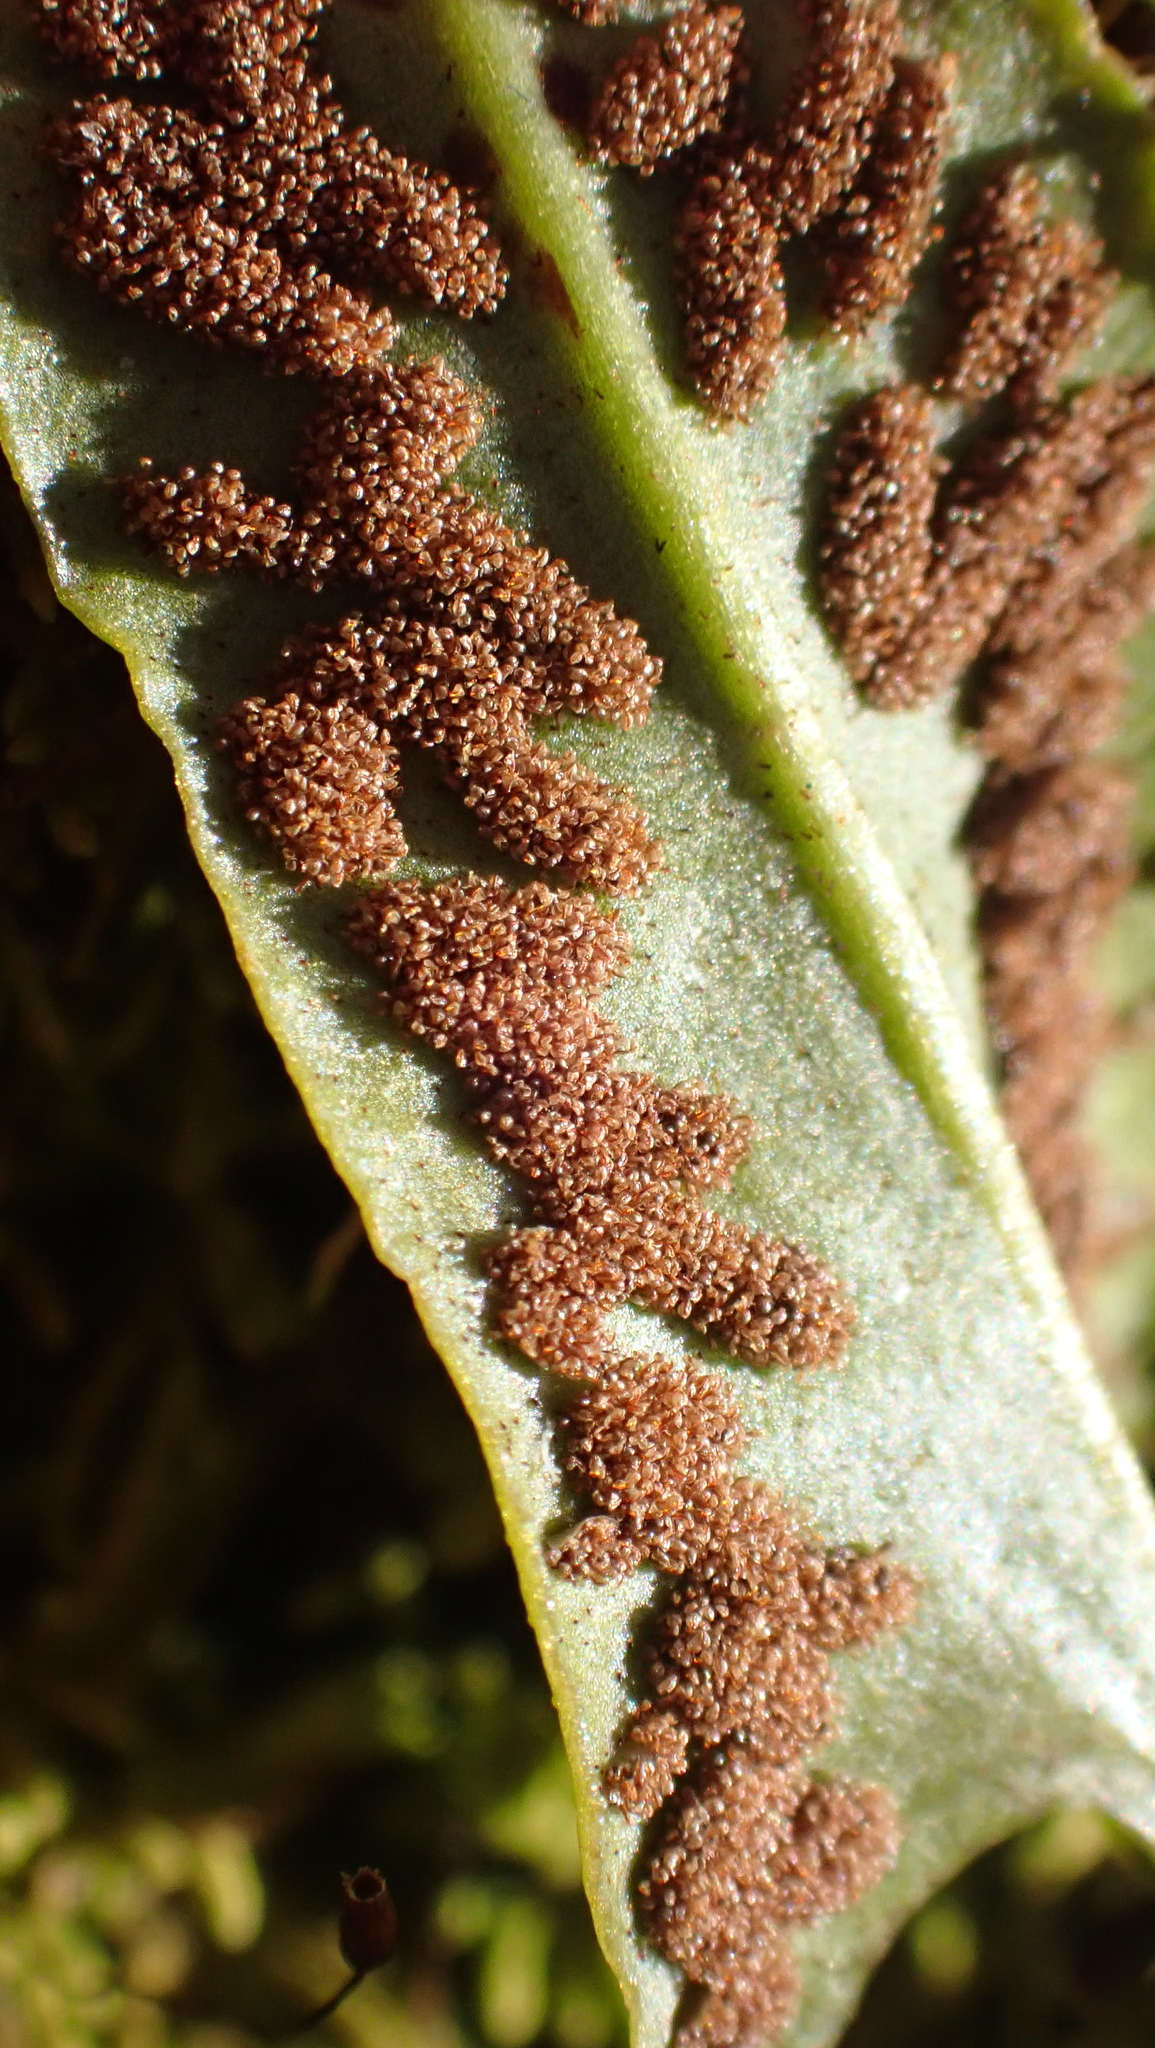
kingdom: Plantae
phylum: Tracheophyta
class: Polypodiopsida
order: Polypodiales
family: Aspleniaceae
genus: Asplenium
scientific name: Asplenium rhizophyllum
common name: Walking fern
